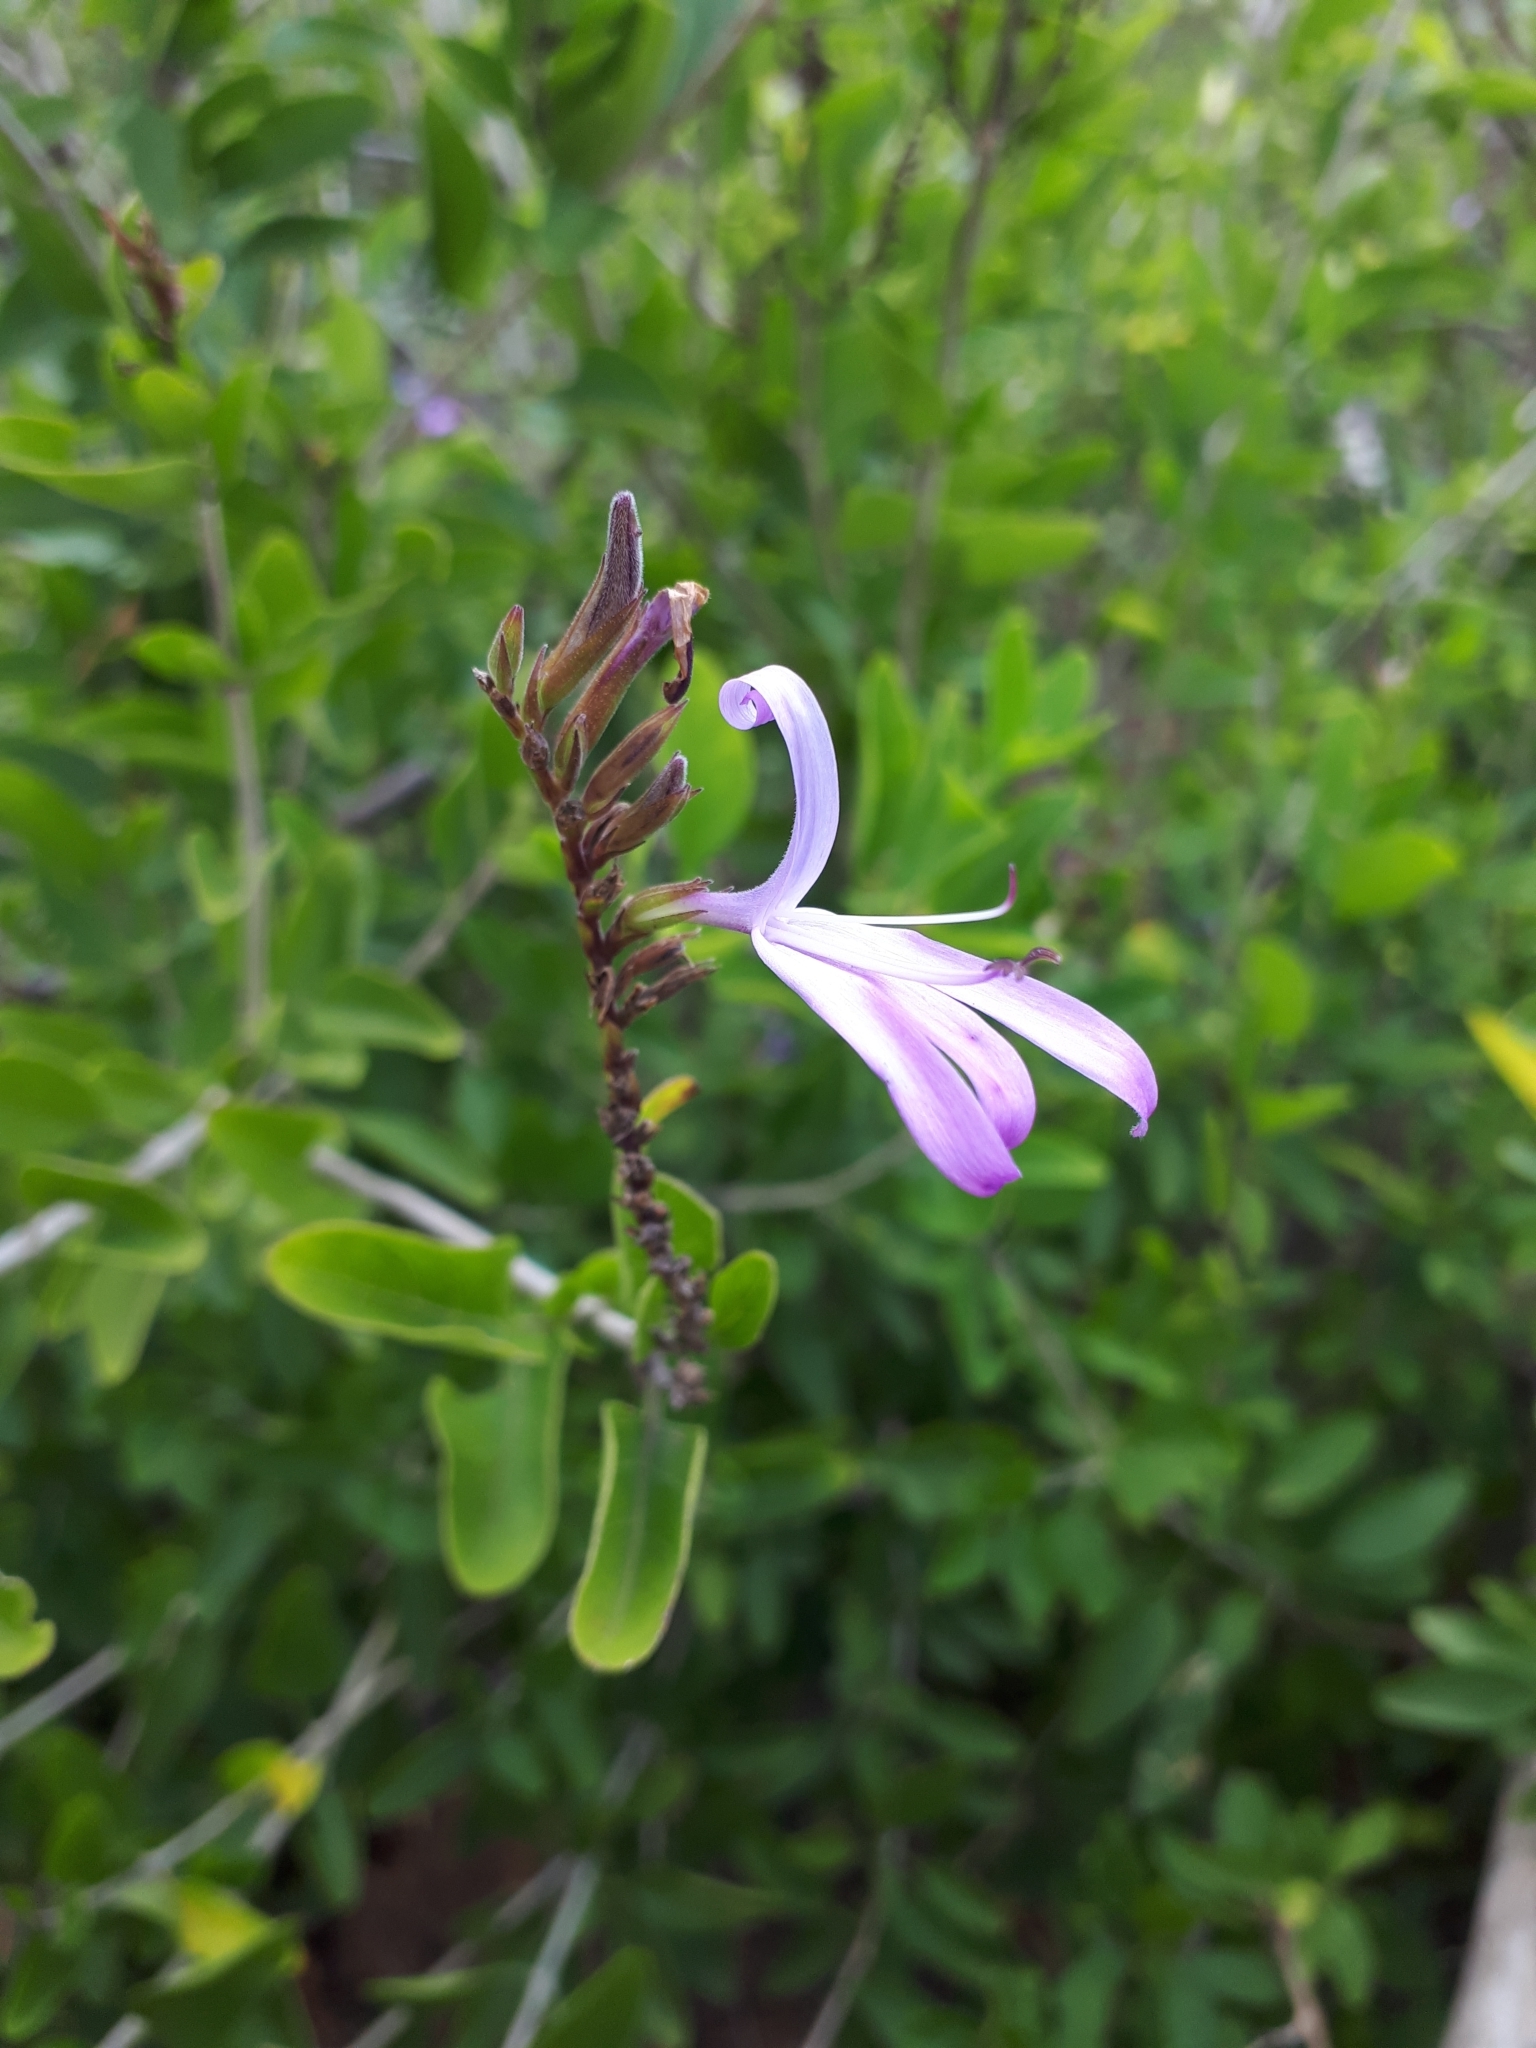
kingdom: Plantae
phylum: Tracheophyta
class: Magnoliopsida
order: Lamiales
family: Acanthaceae
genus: Chorisochora
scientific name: Chorisochora transvaalensis
